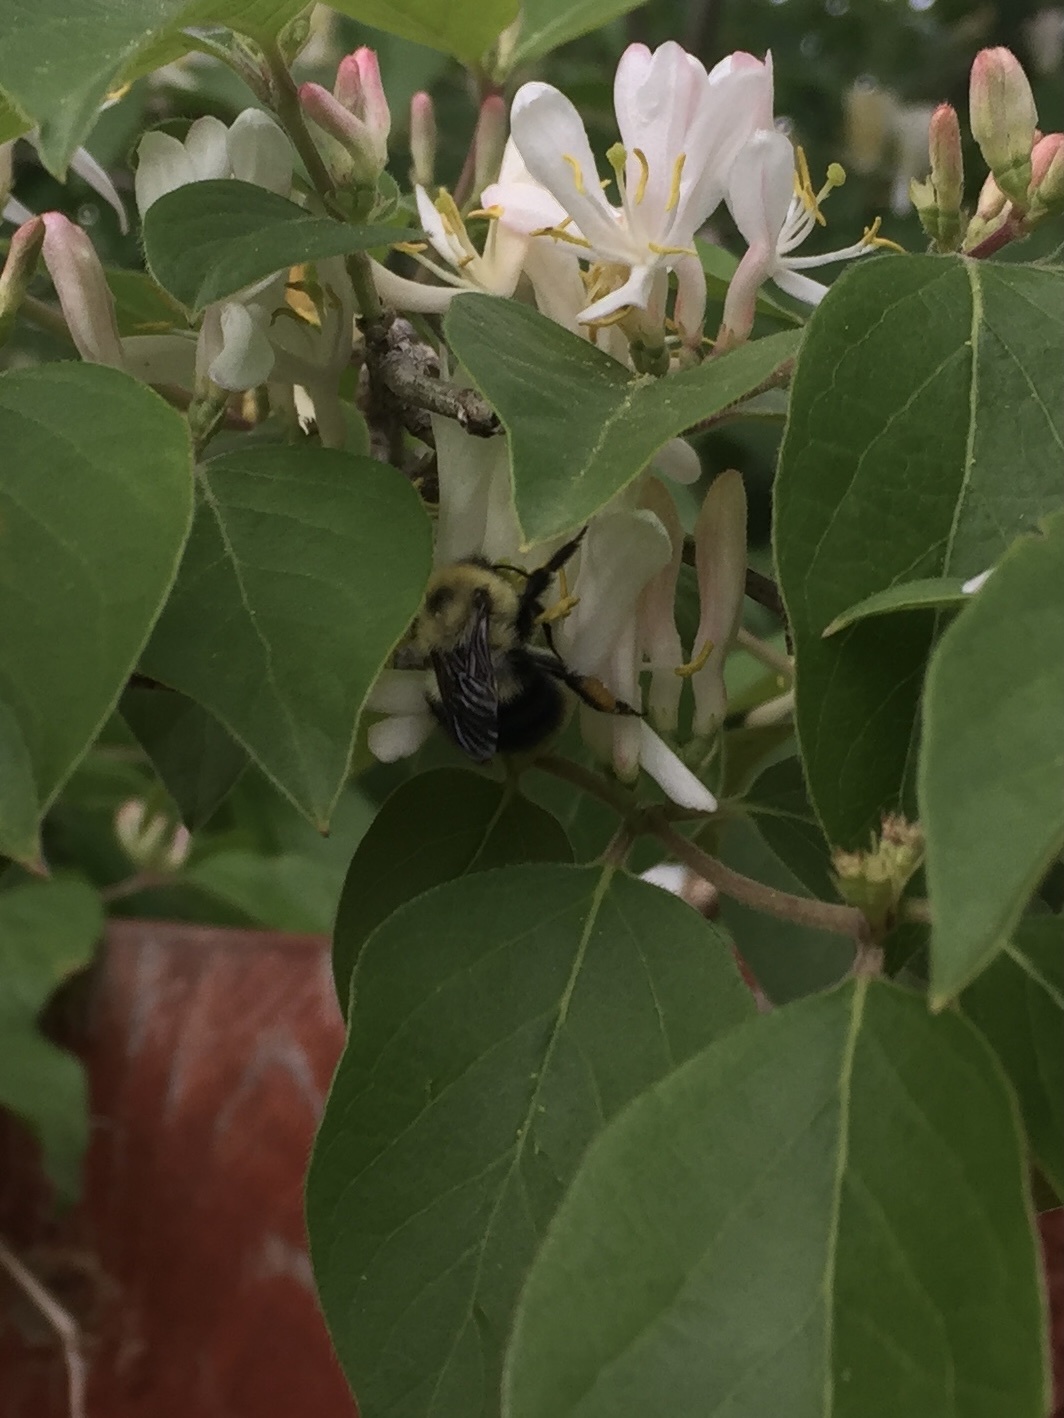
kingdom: Animalia
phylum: Arthropoda
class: Insecta
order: Hymenoptera
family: Apidae
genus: Bombus
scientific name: Bombus bimaculatus
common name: Two-spotted bumble bee
